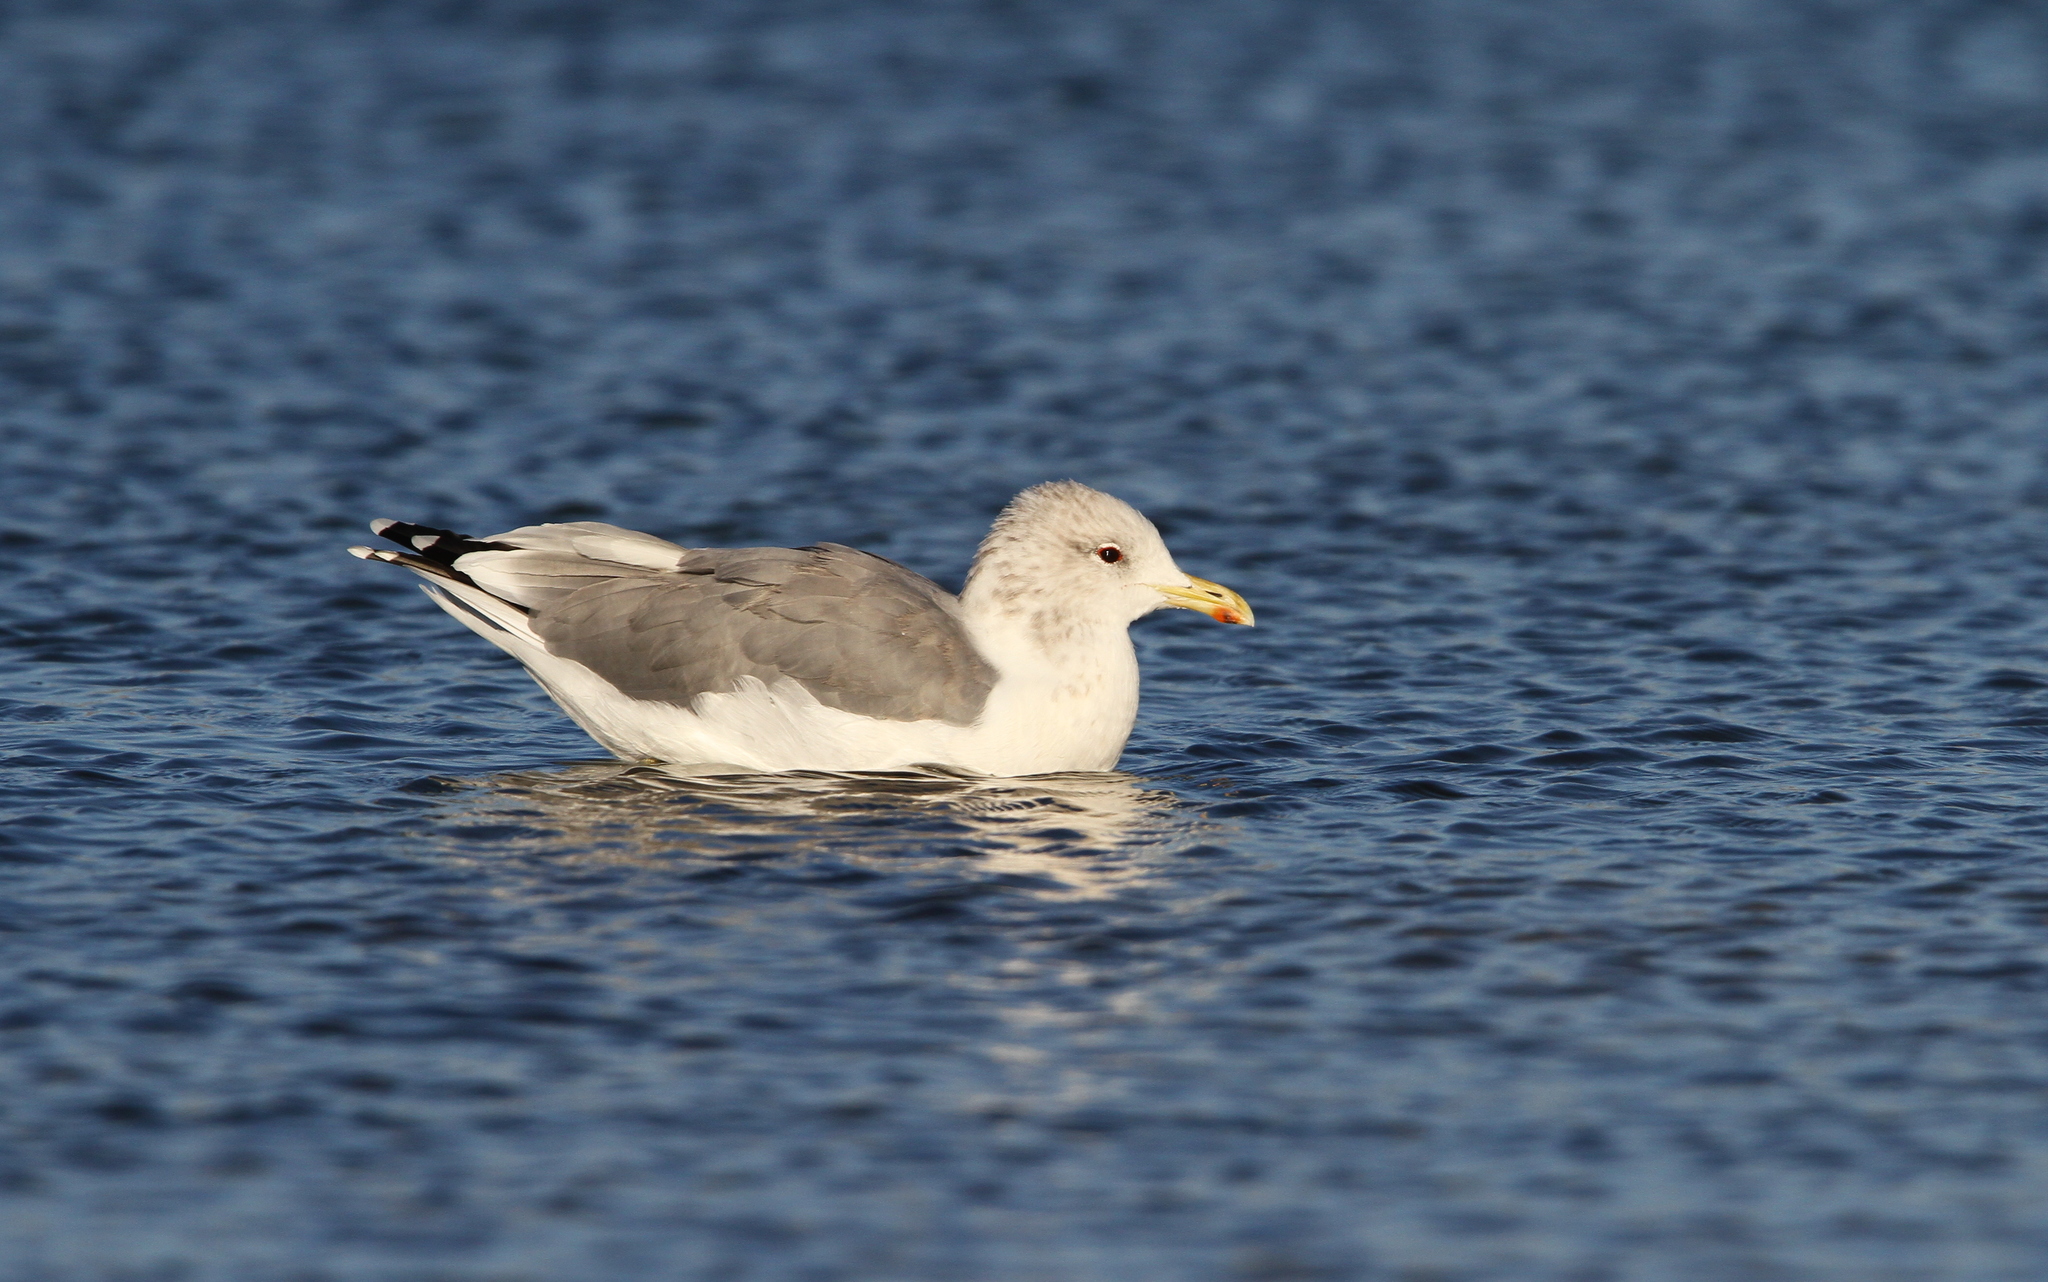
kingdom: Animalia
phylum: Chordata
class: Aves
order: Charadriiformes
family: Laridae
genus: Larus
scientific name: Larus californicus
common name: California gull
